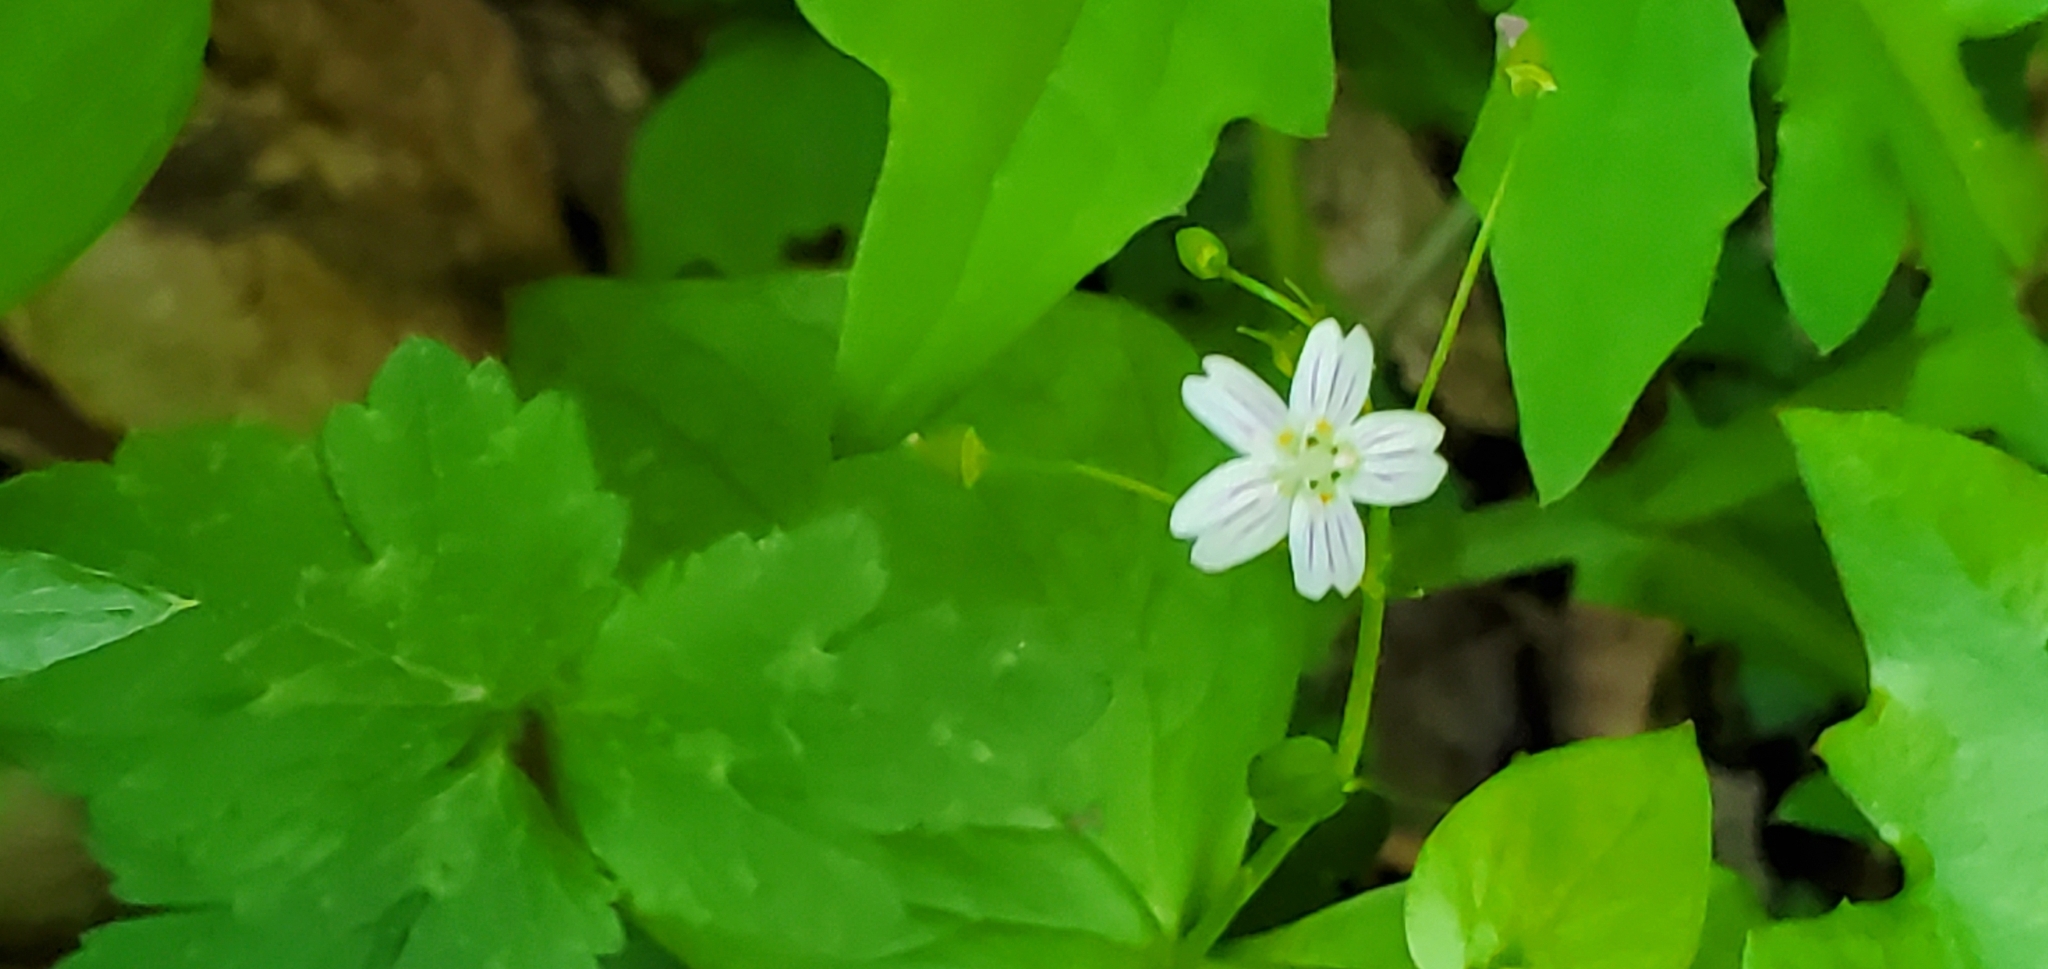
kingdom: Plantae
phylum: Tracheophyta
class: Magnoliopsida
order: Caryophyllales
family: Montiaceae
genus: Claytonia
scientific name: Claytonia sibirica
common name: Pink purslane
